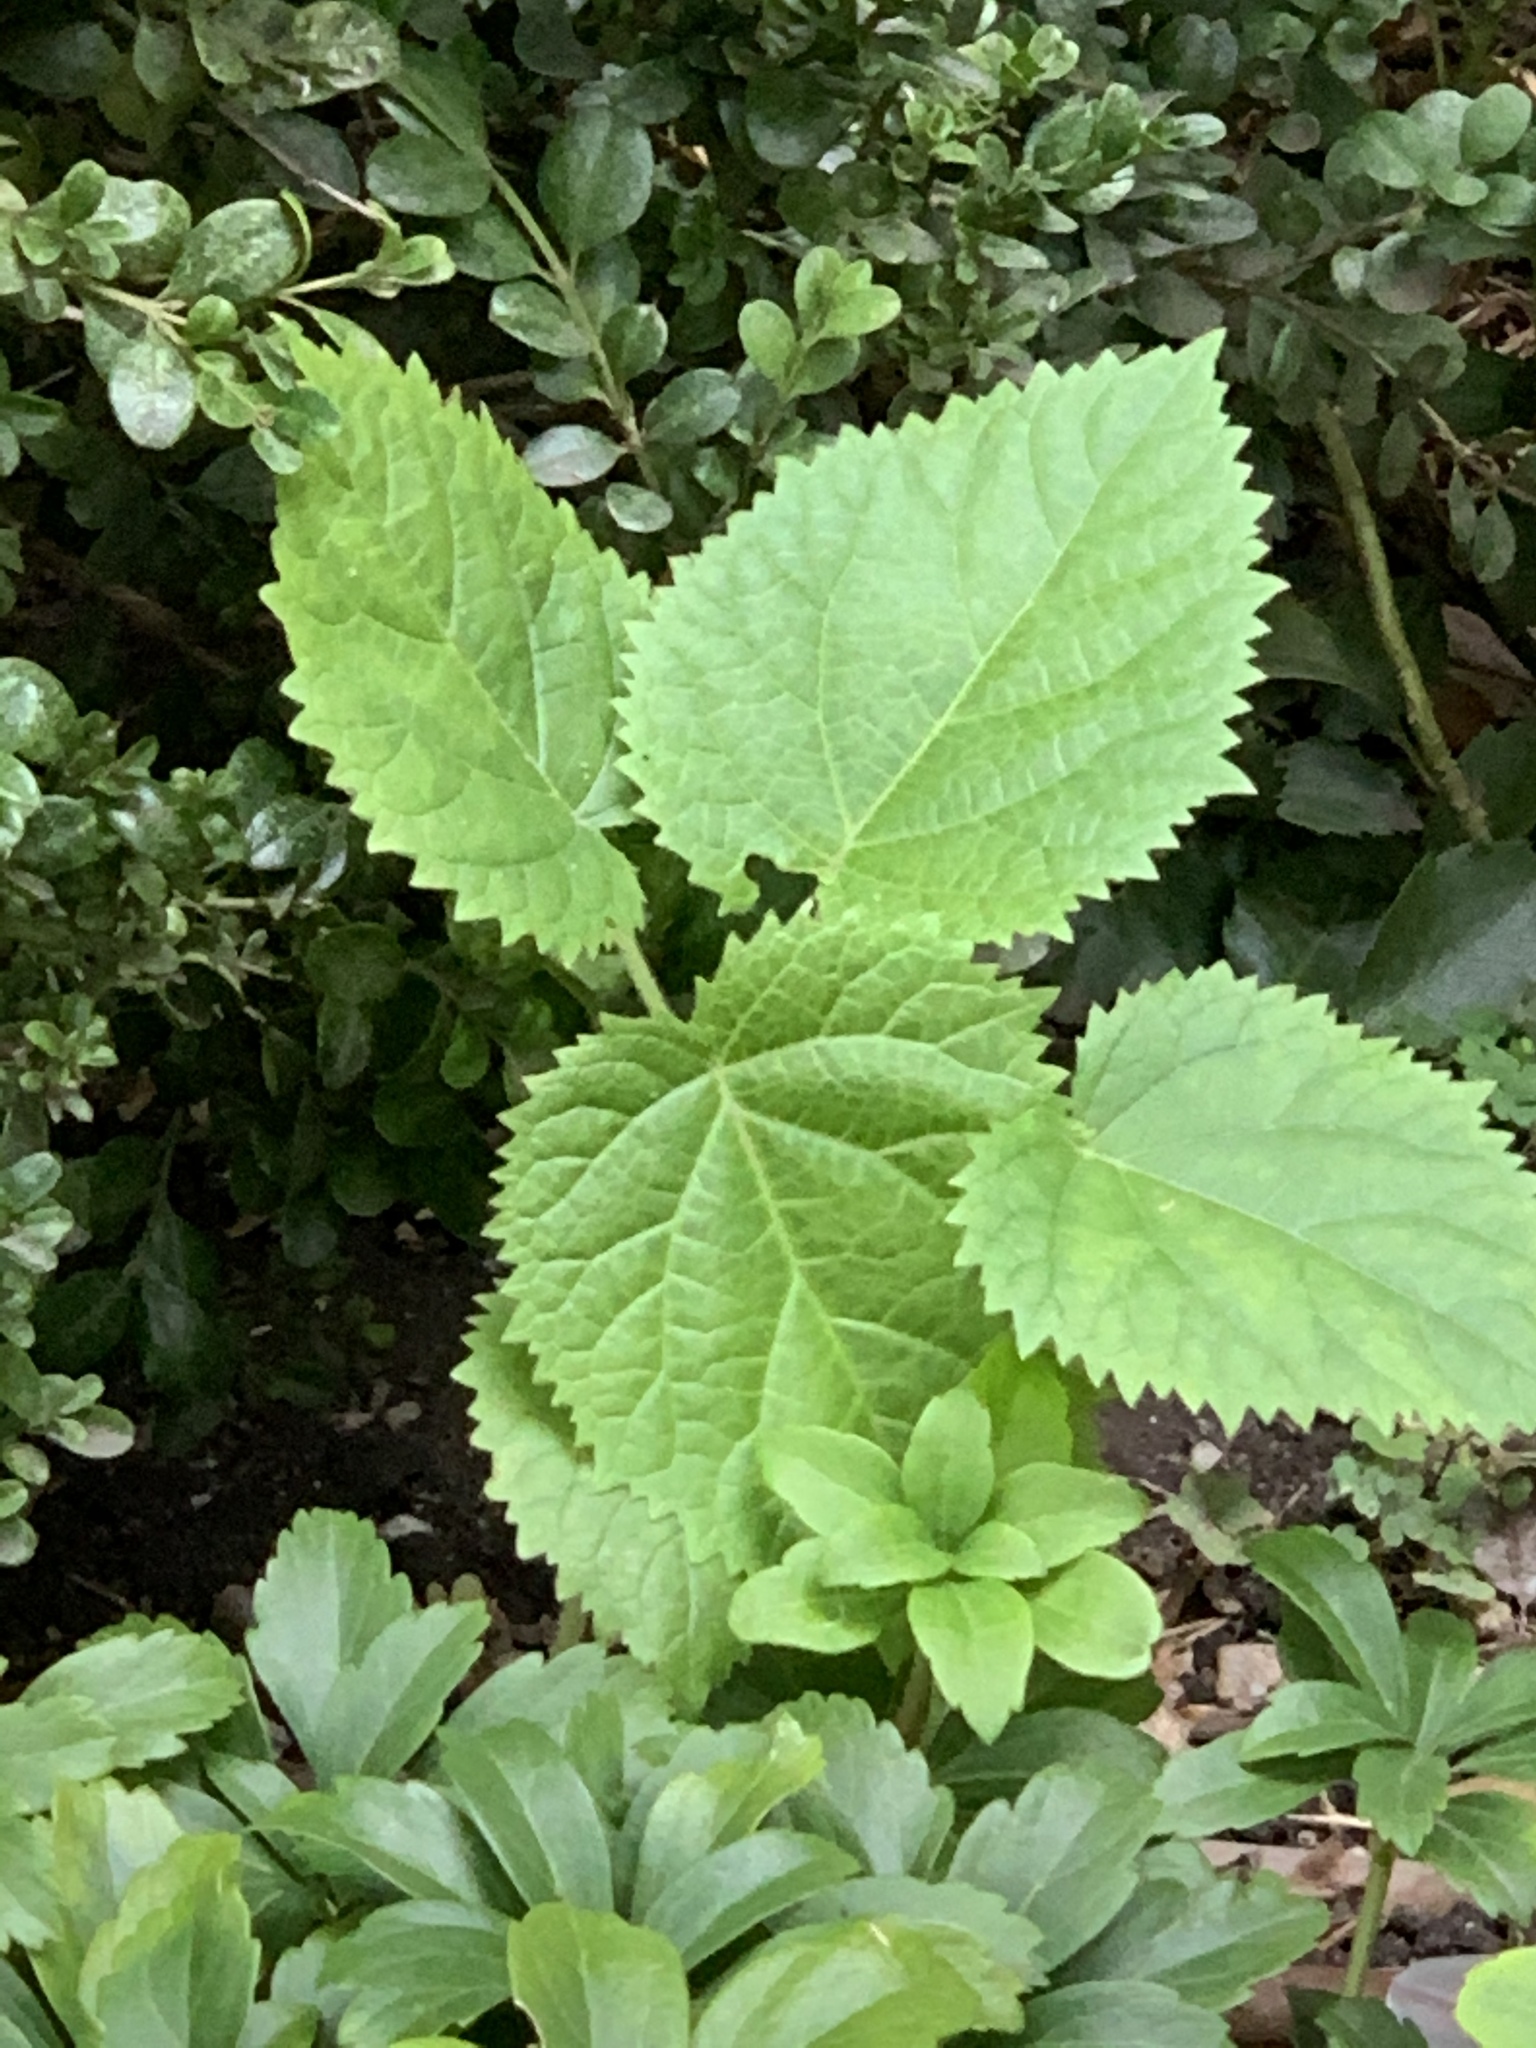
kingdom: Plantae
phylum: Tracheophyta
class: Magnoliopsida
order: Lamiales
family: Paulowniaceae
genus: Paulownia
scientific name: Paulownia tomentosa
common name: Foxglove-tree
